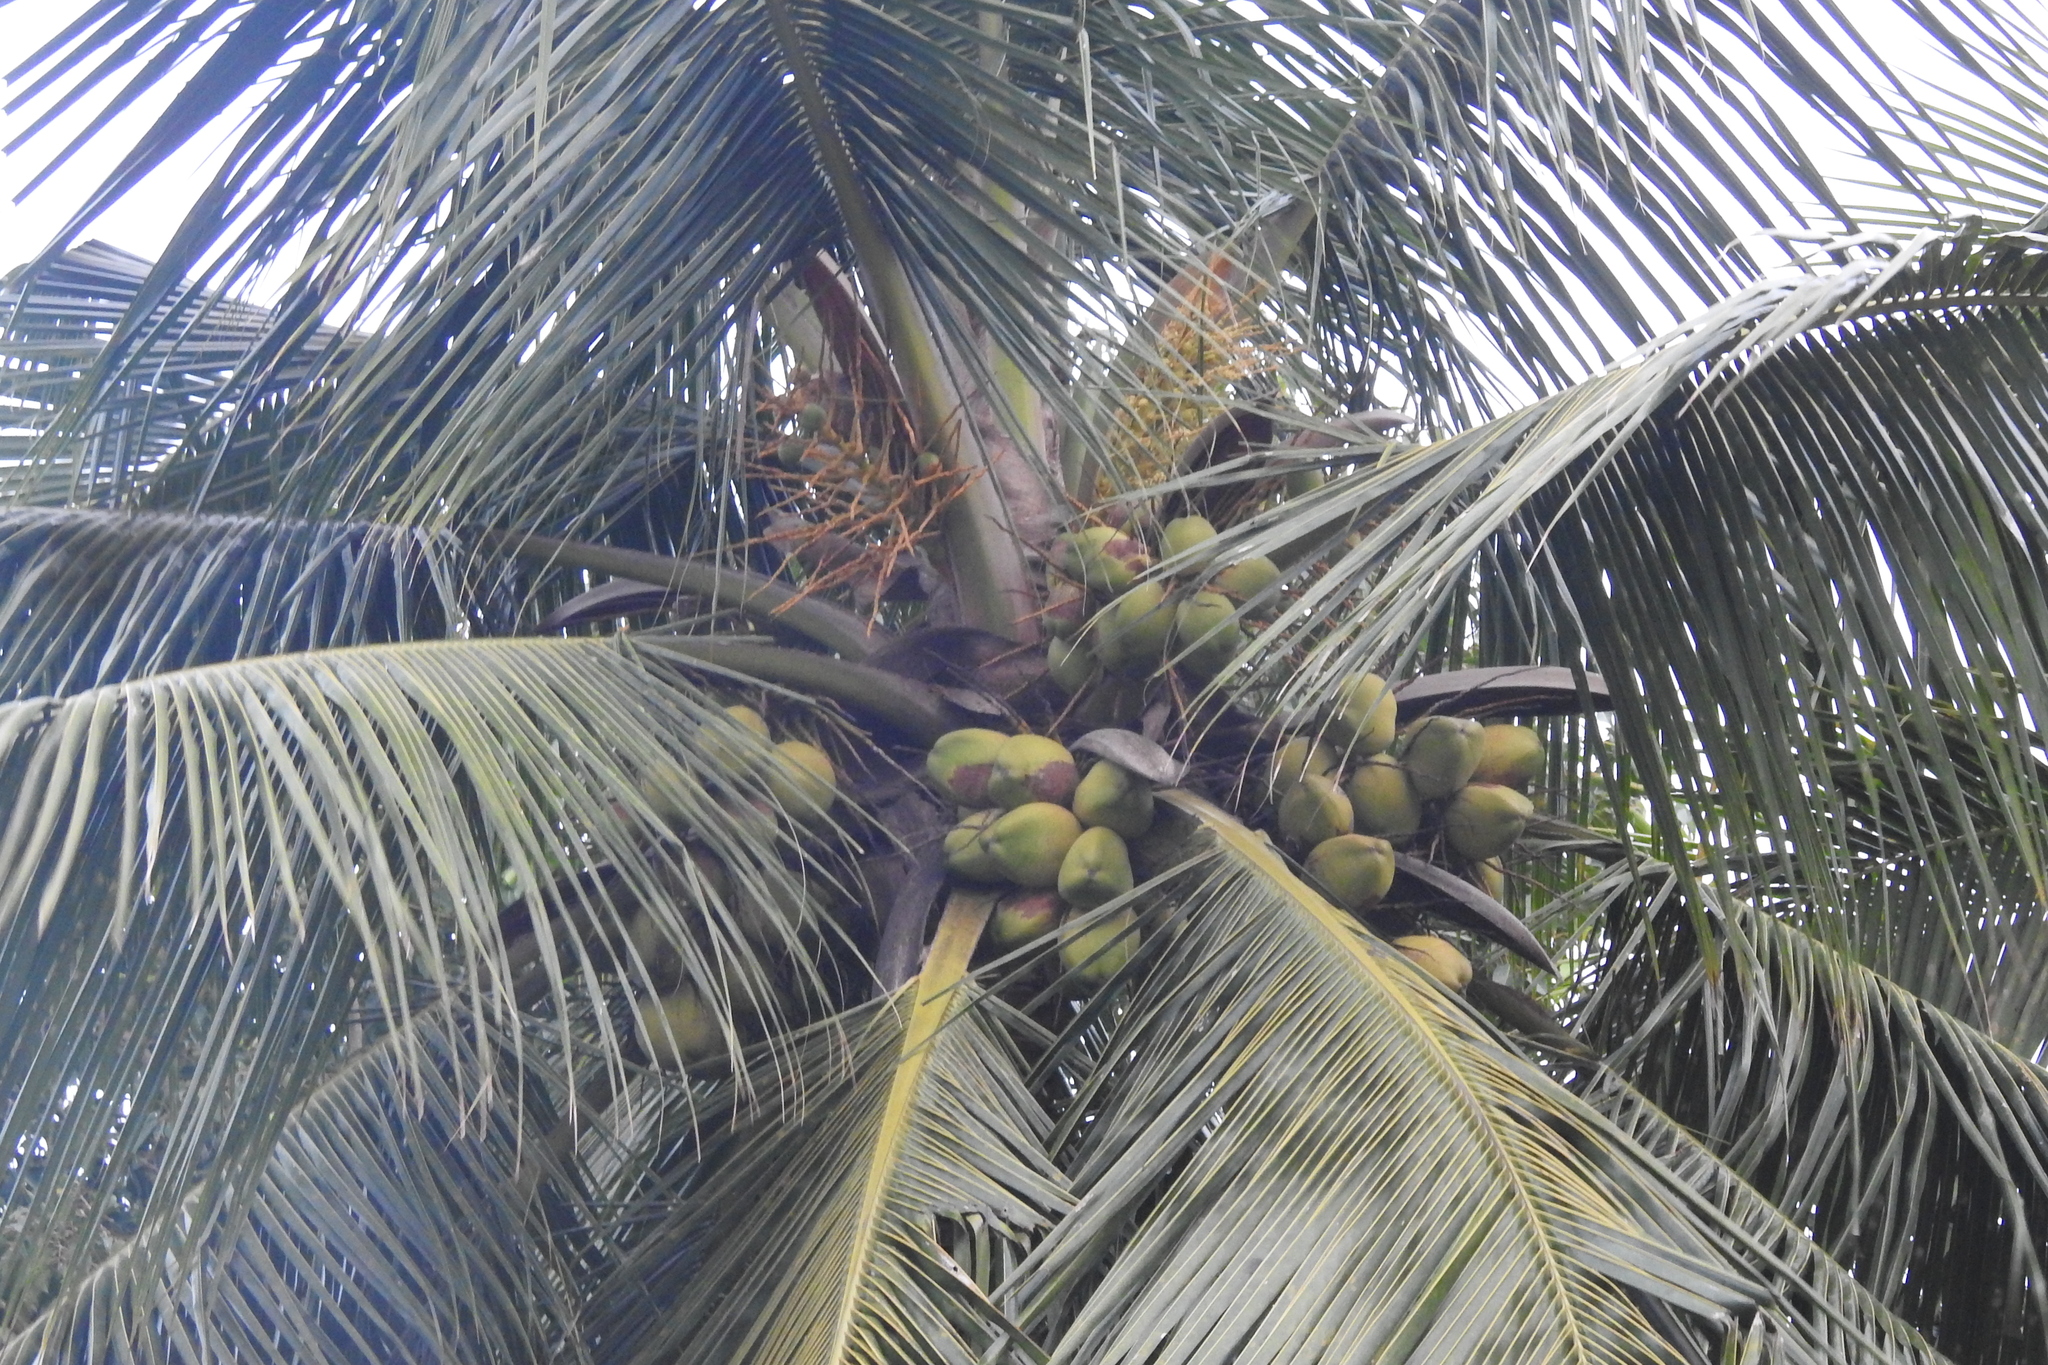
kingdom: Plantae
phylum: Tracheophyta
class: Liliopsida
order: Arecales
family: Arecaceae
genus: Cocos
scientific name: Cocos nucifera
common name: Coconut palm
